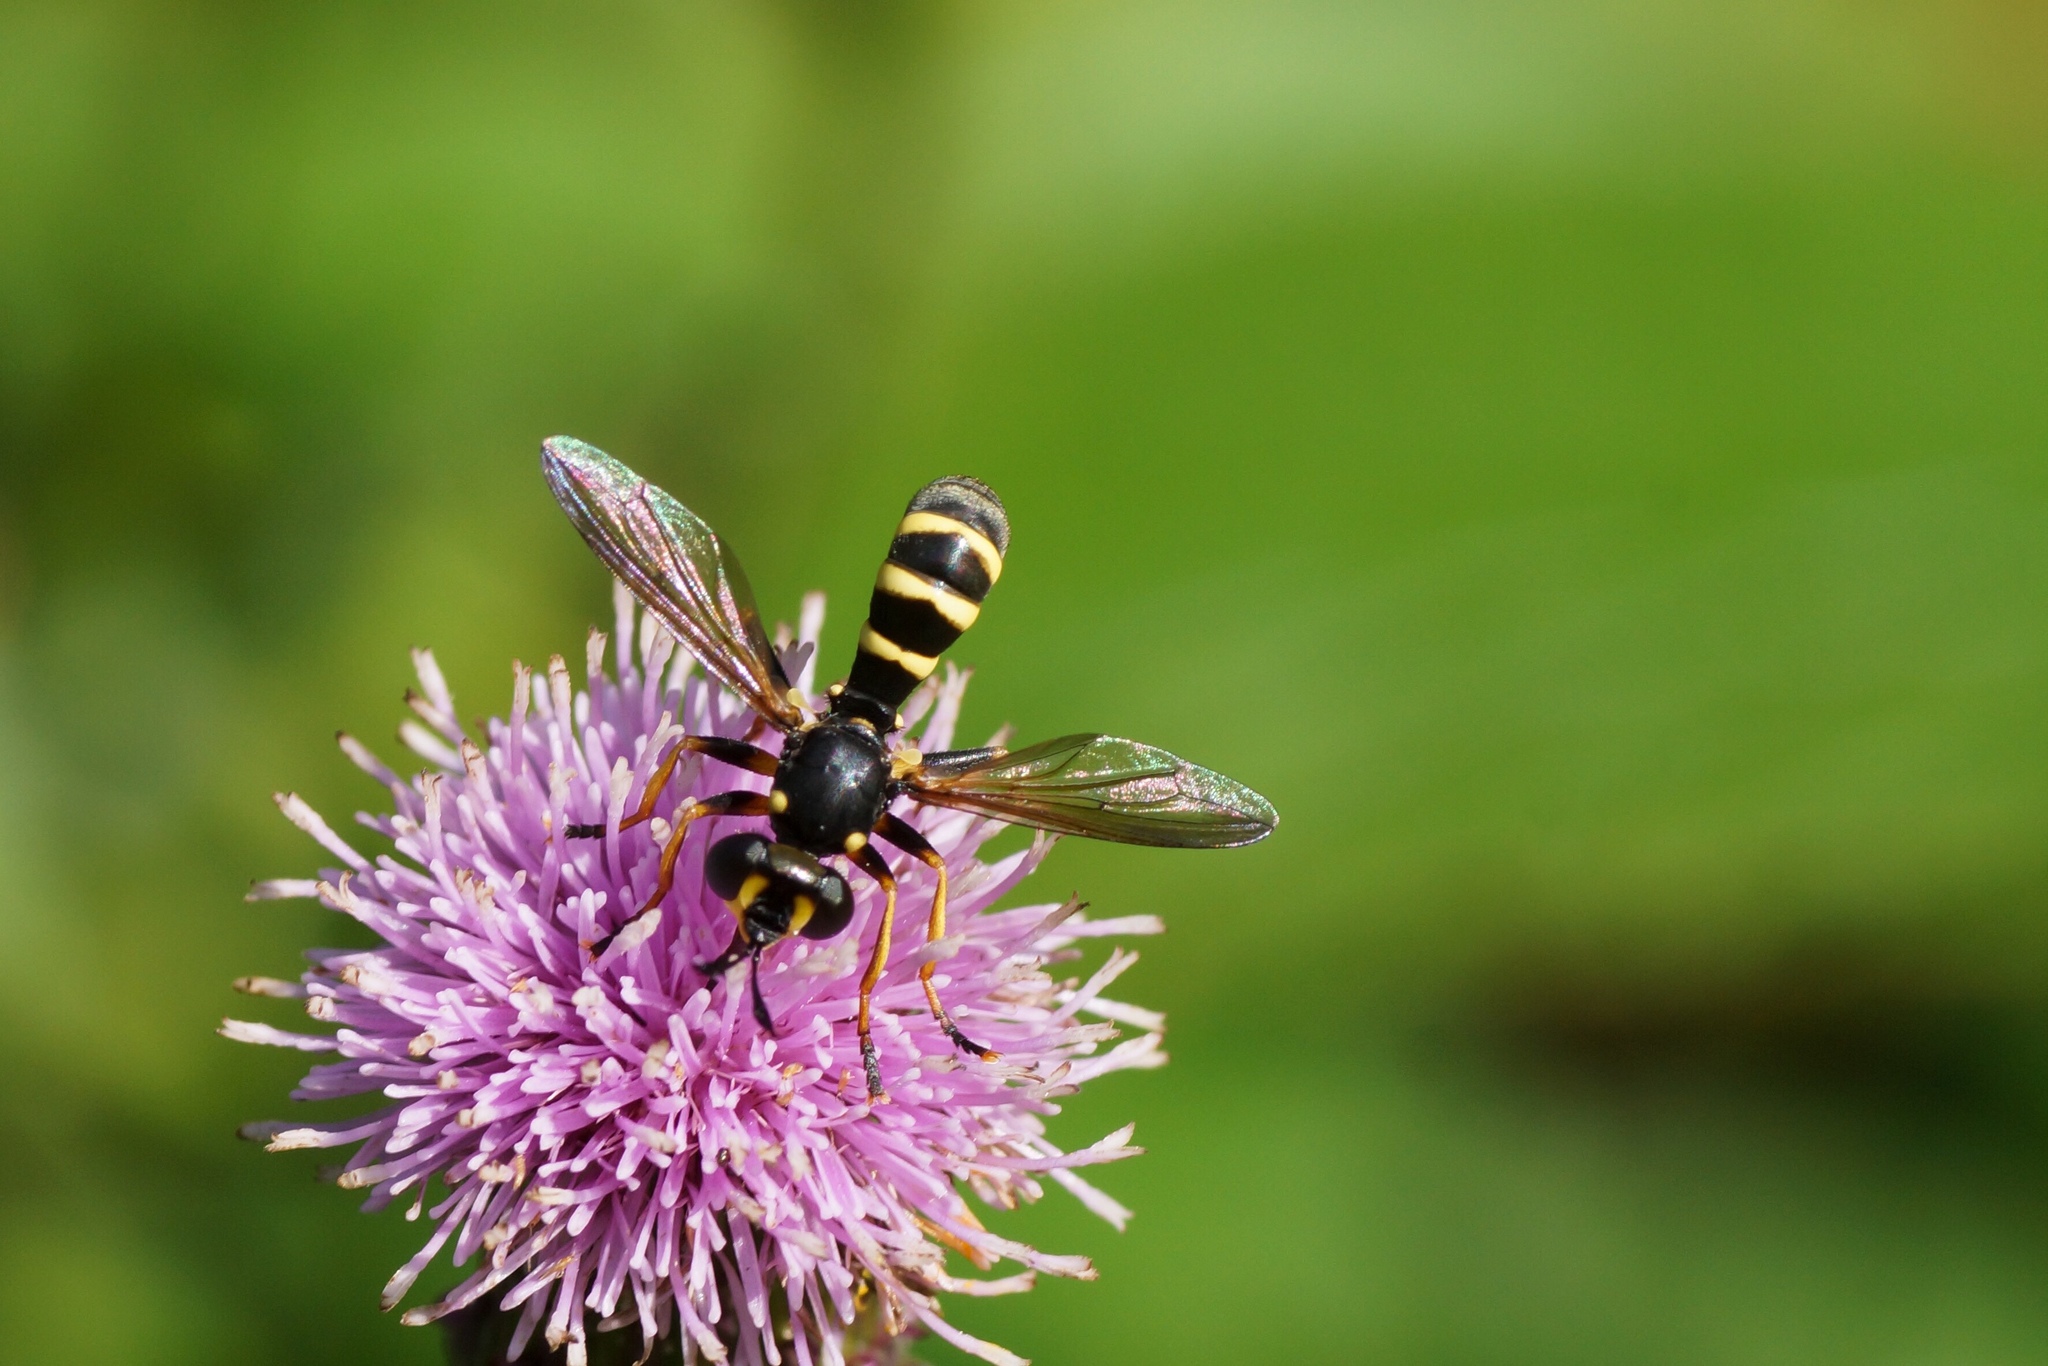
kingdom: Animalia
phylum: Arthropoda
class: Insecta
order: Diptera
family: Conopidae
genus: Conops
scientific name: Conops flavipes
